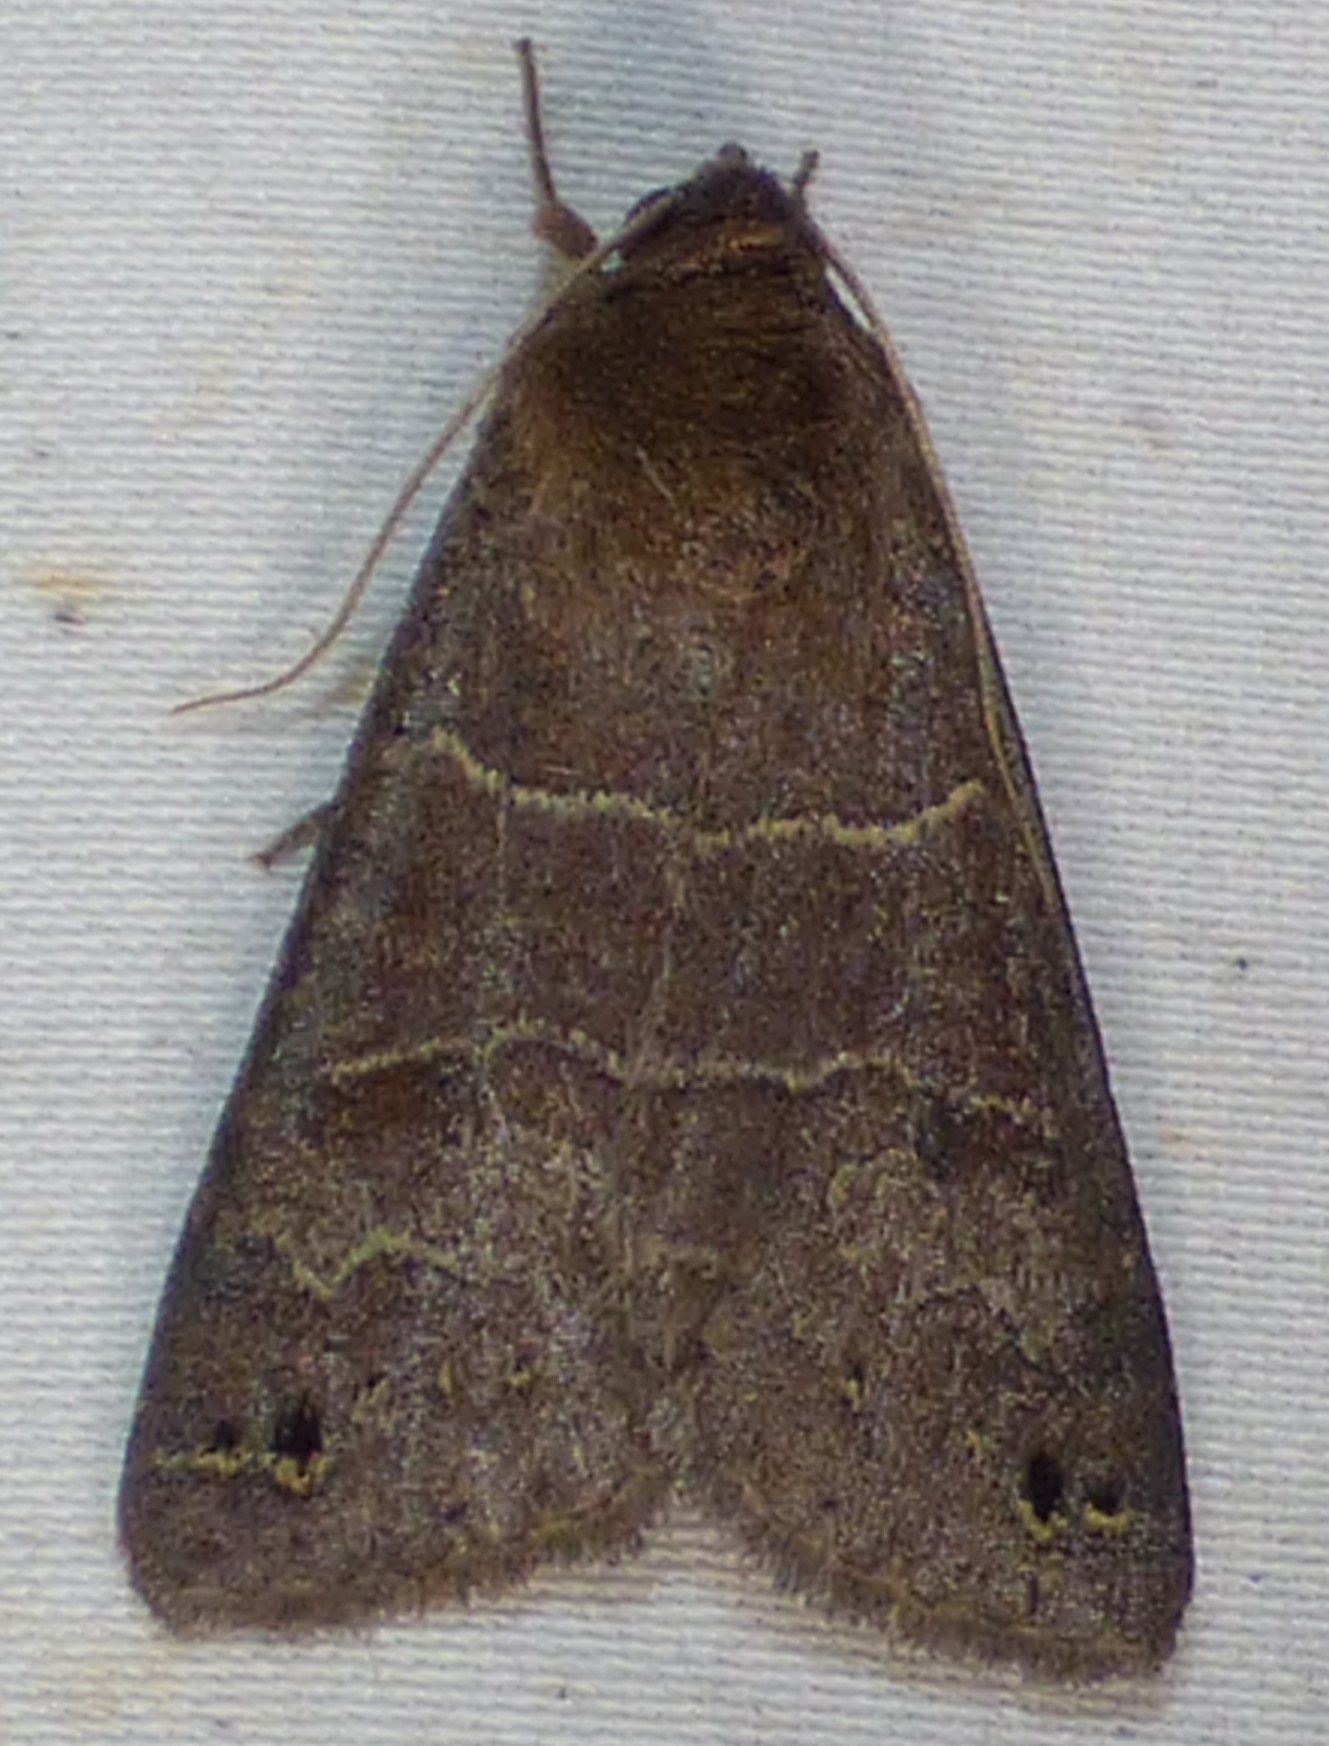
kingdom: Animalia
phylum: Arthropoda
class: Insecta
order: Lepidoptera
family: Erebidae
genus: Cissusa
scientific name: Cissusa spadix
